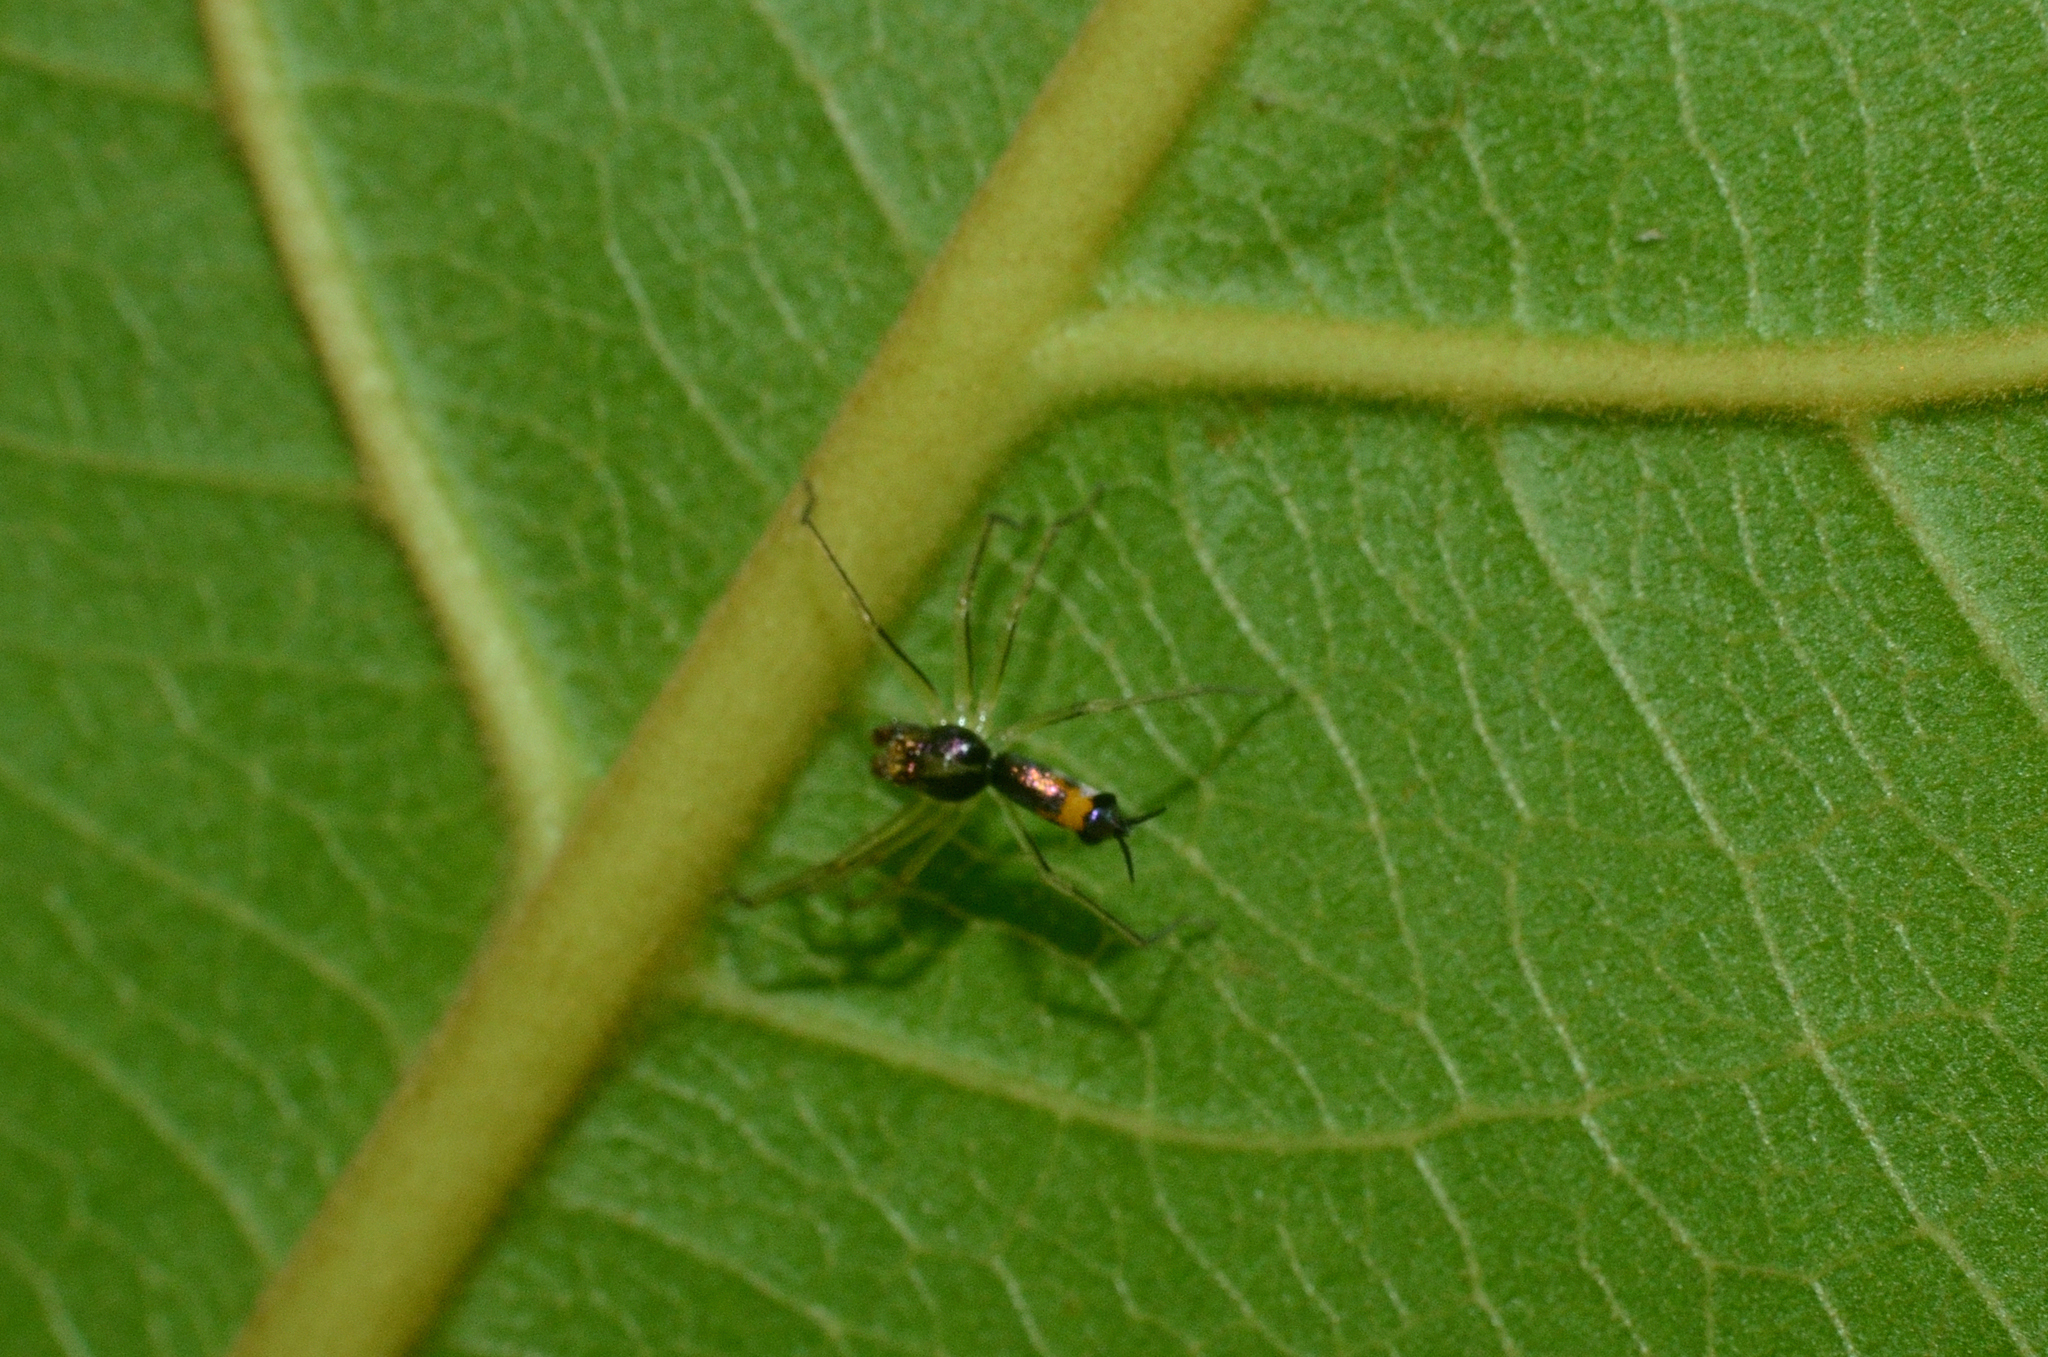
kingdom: Animalia
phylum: Arthropoda
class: Arachnida
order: Araneae
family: Salticidae
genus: Asemonea
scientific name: Asemonea tenuipes
